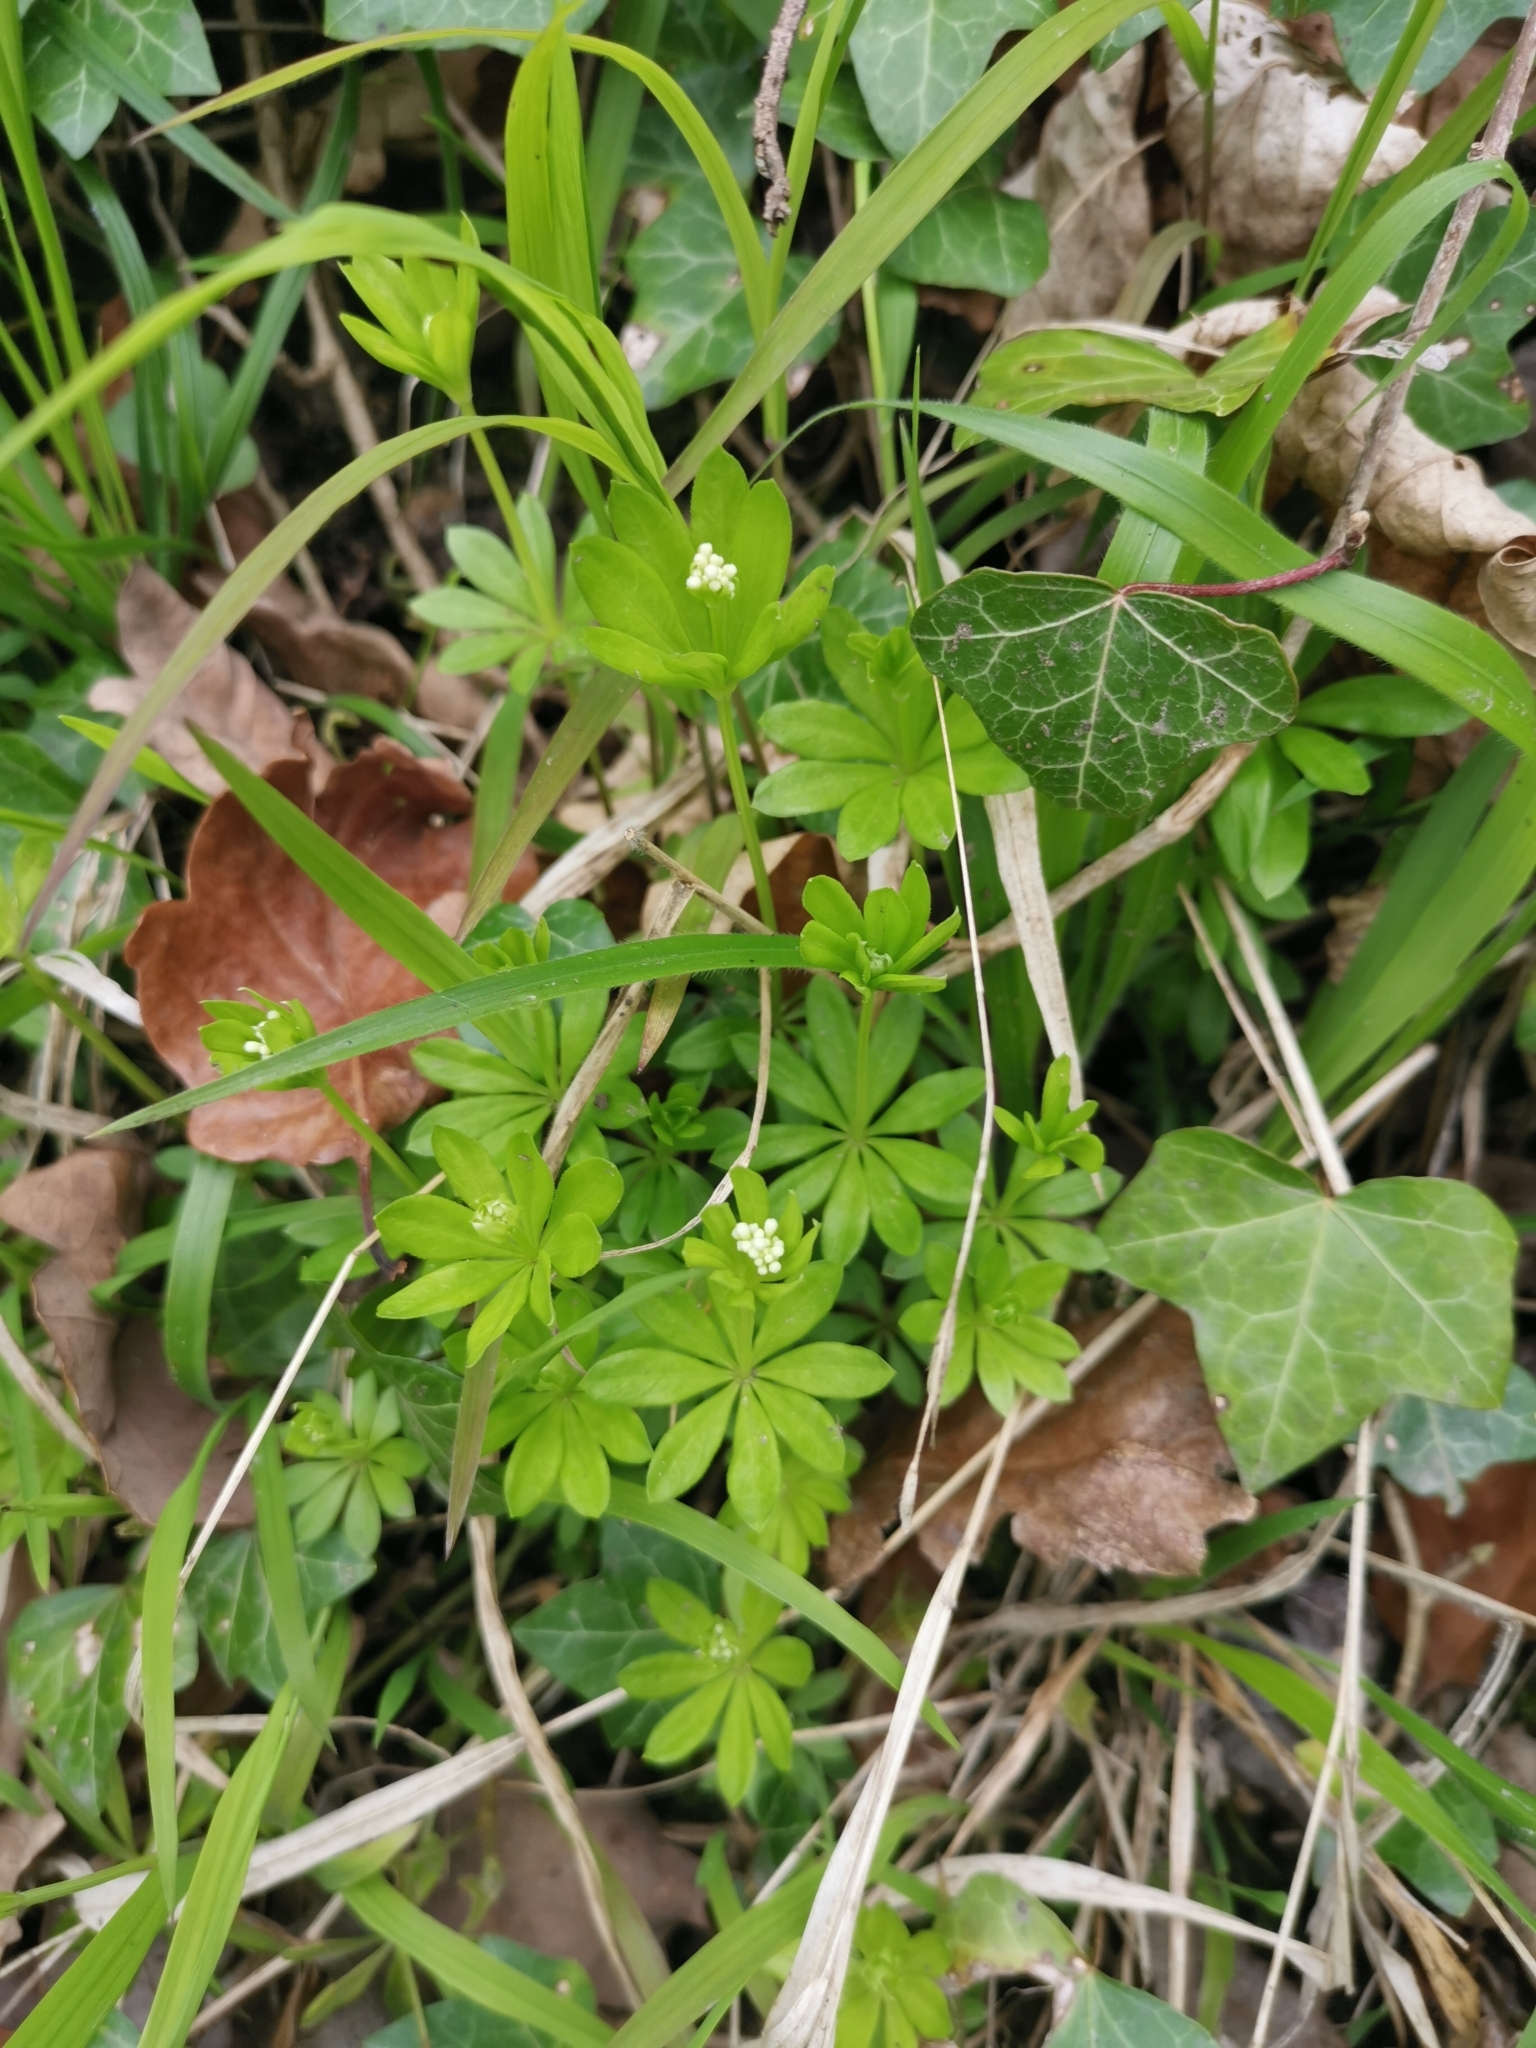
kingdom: Plantae
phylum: Tracheophyta
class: Magnoliopsida
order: Gentianales
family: Rubiaceae
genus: Galium
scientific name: Galium odoratum
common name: Sweet woodruff
